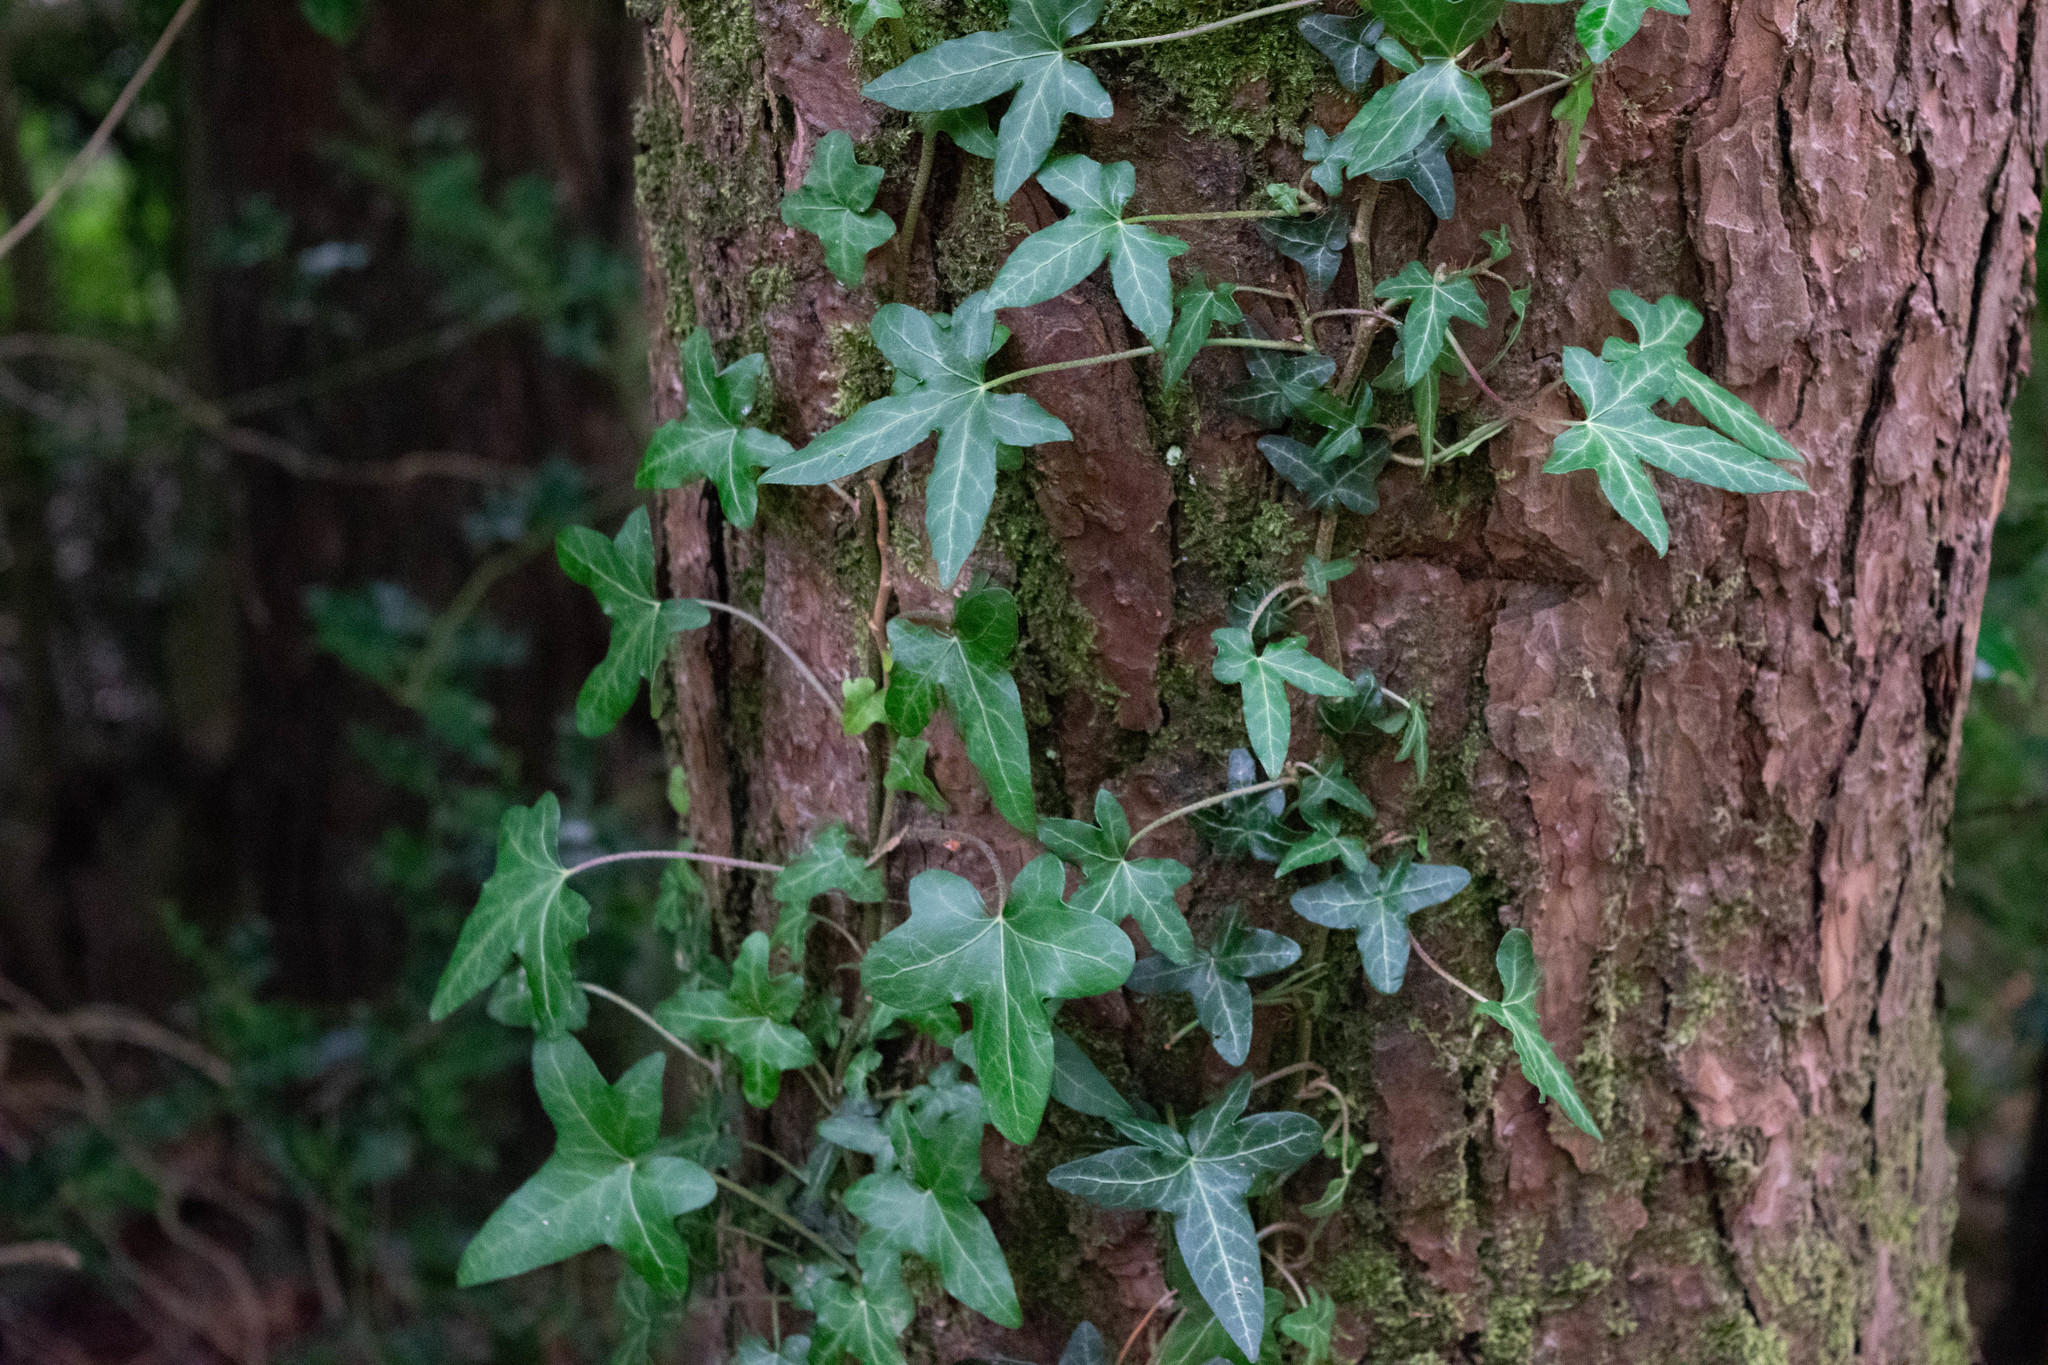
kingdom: Plantae
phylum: Tracheophyta
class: Magnoliopsida
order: Apiales
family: Araliaceae
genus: Hedera
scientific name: Hedera helix
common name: Ivy
